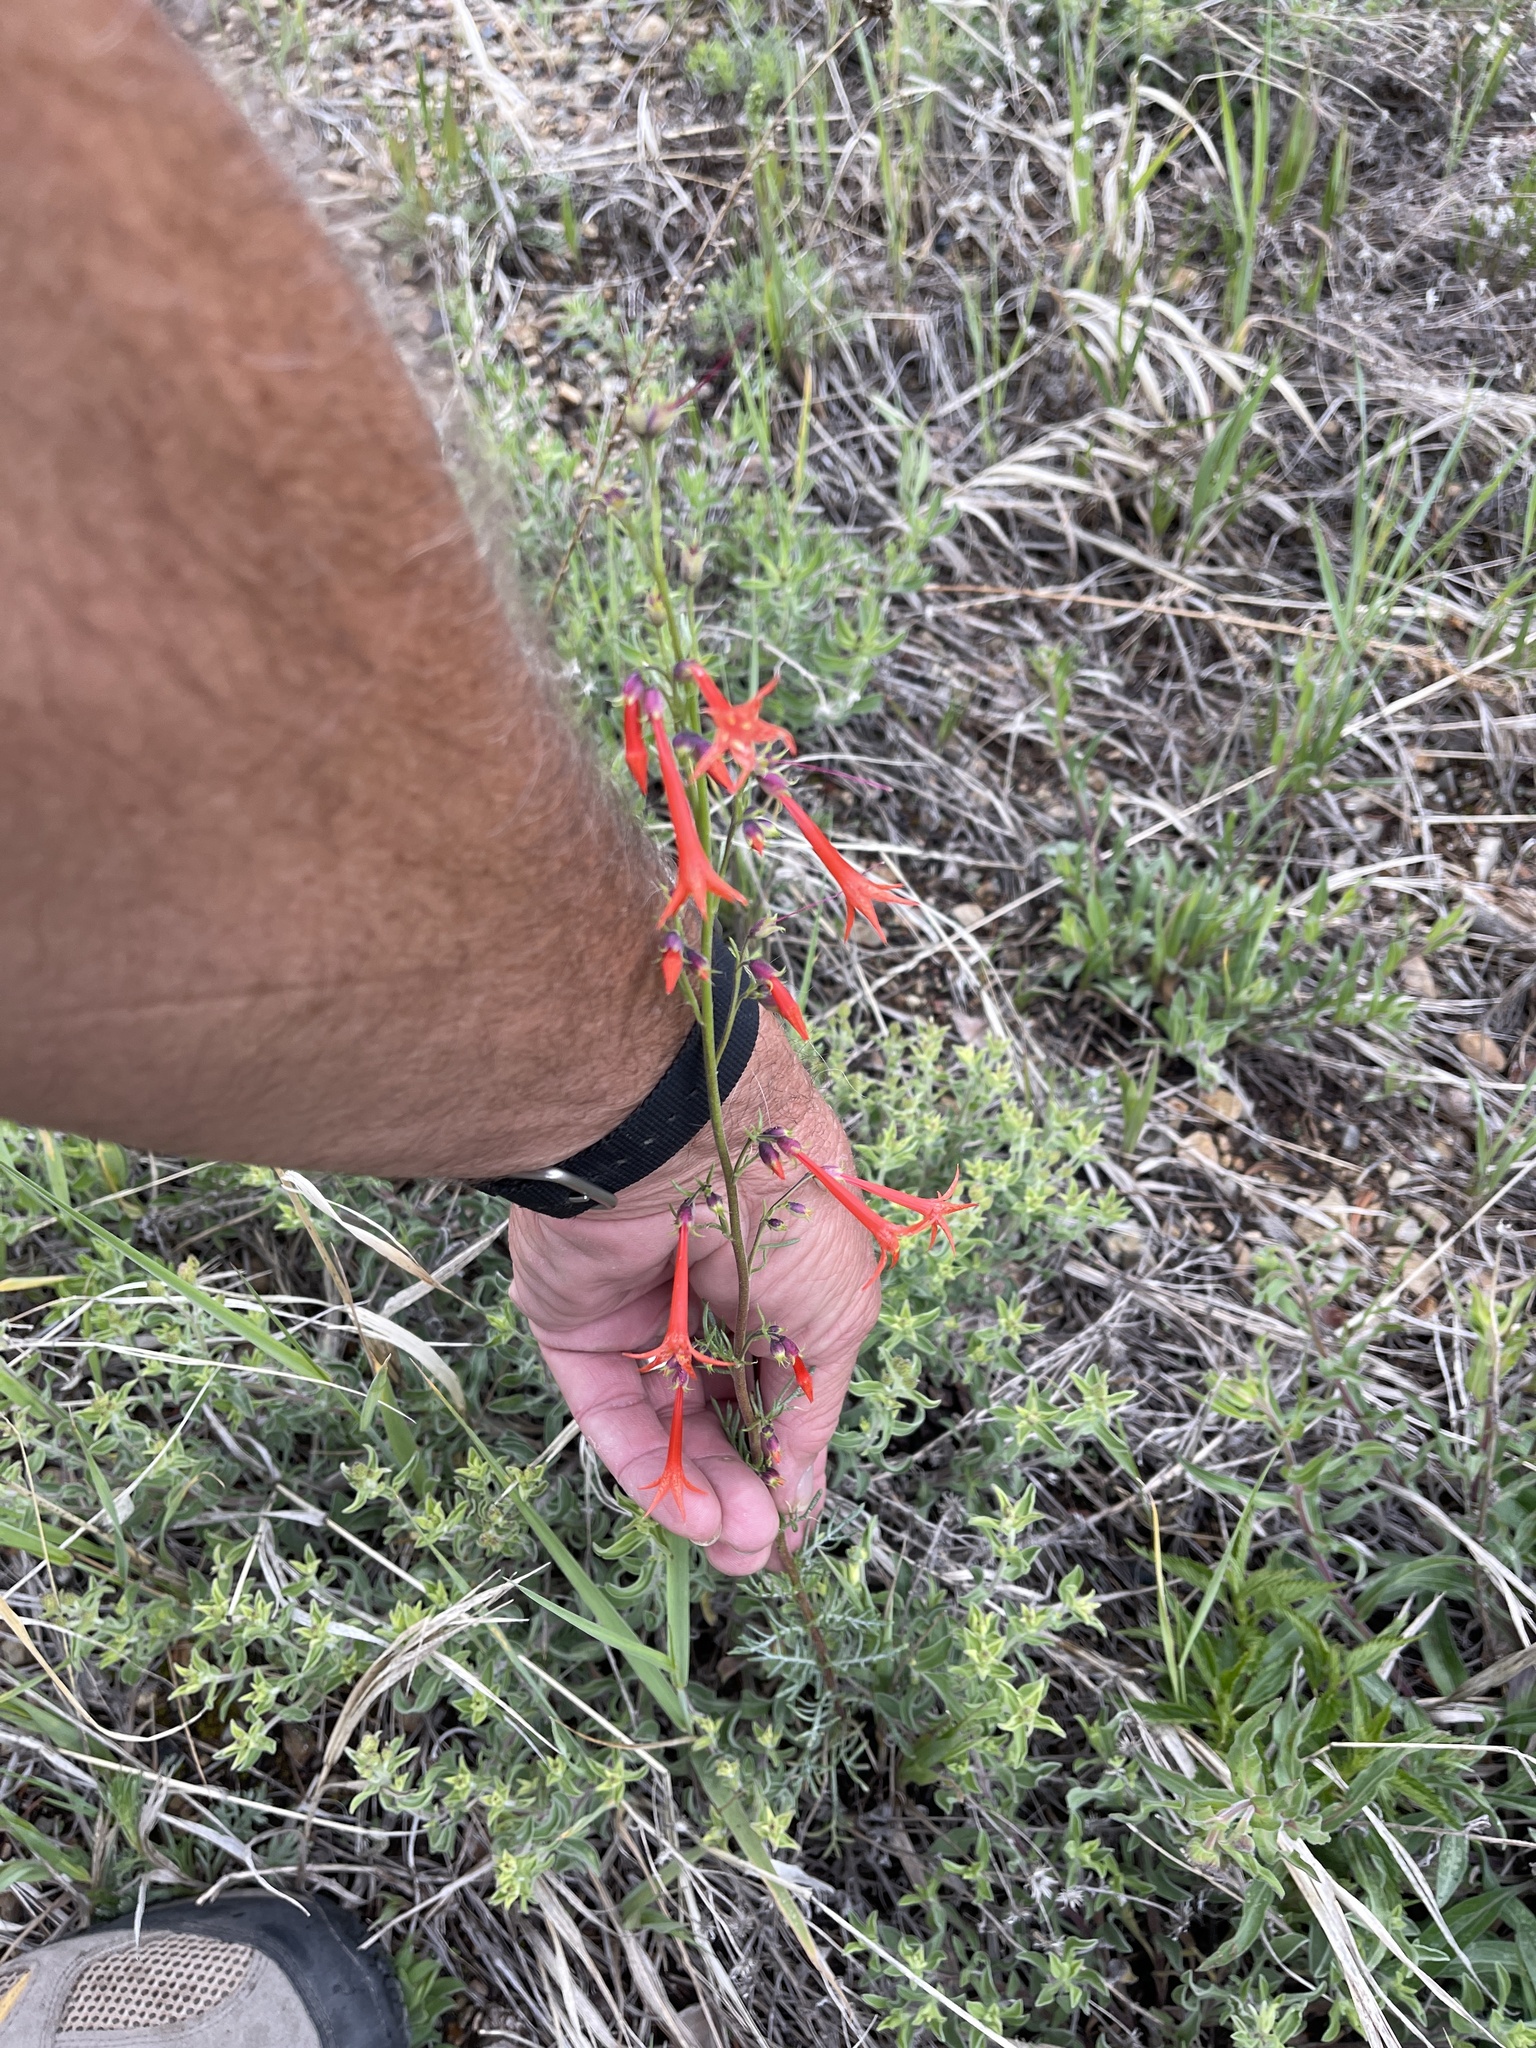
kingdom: Plantae
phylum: Tracheophyta
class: Magnoliopsida
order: Ericales
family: Polemoniaceae
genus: Ipomopsis
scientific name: Ipomopsis aggregata
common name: Scarlet gilia
